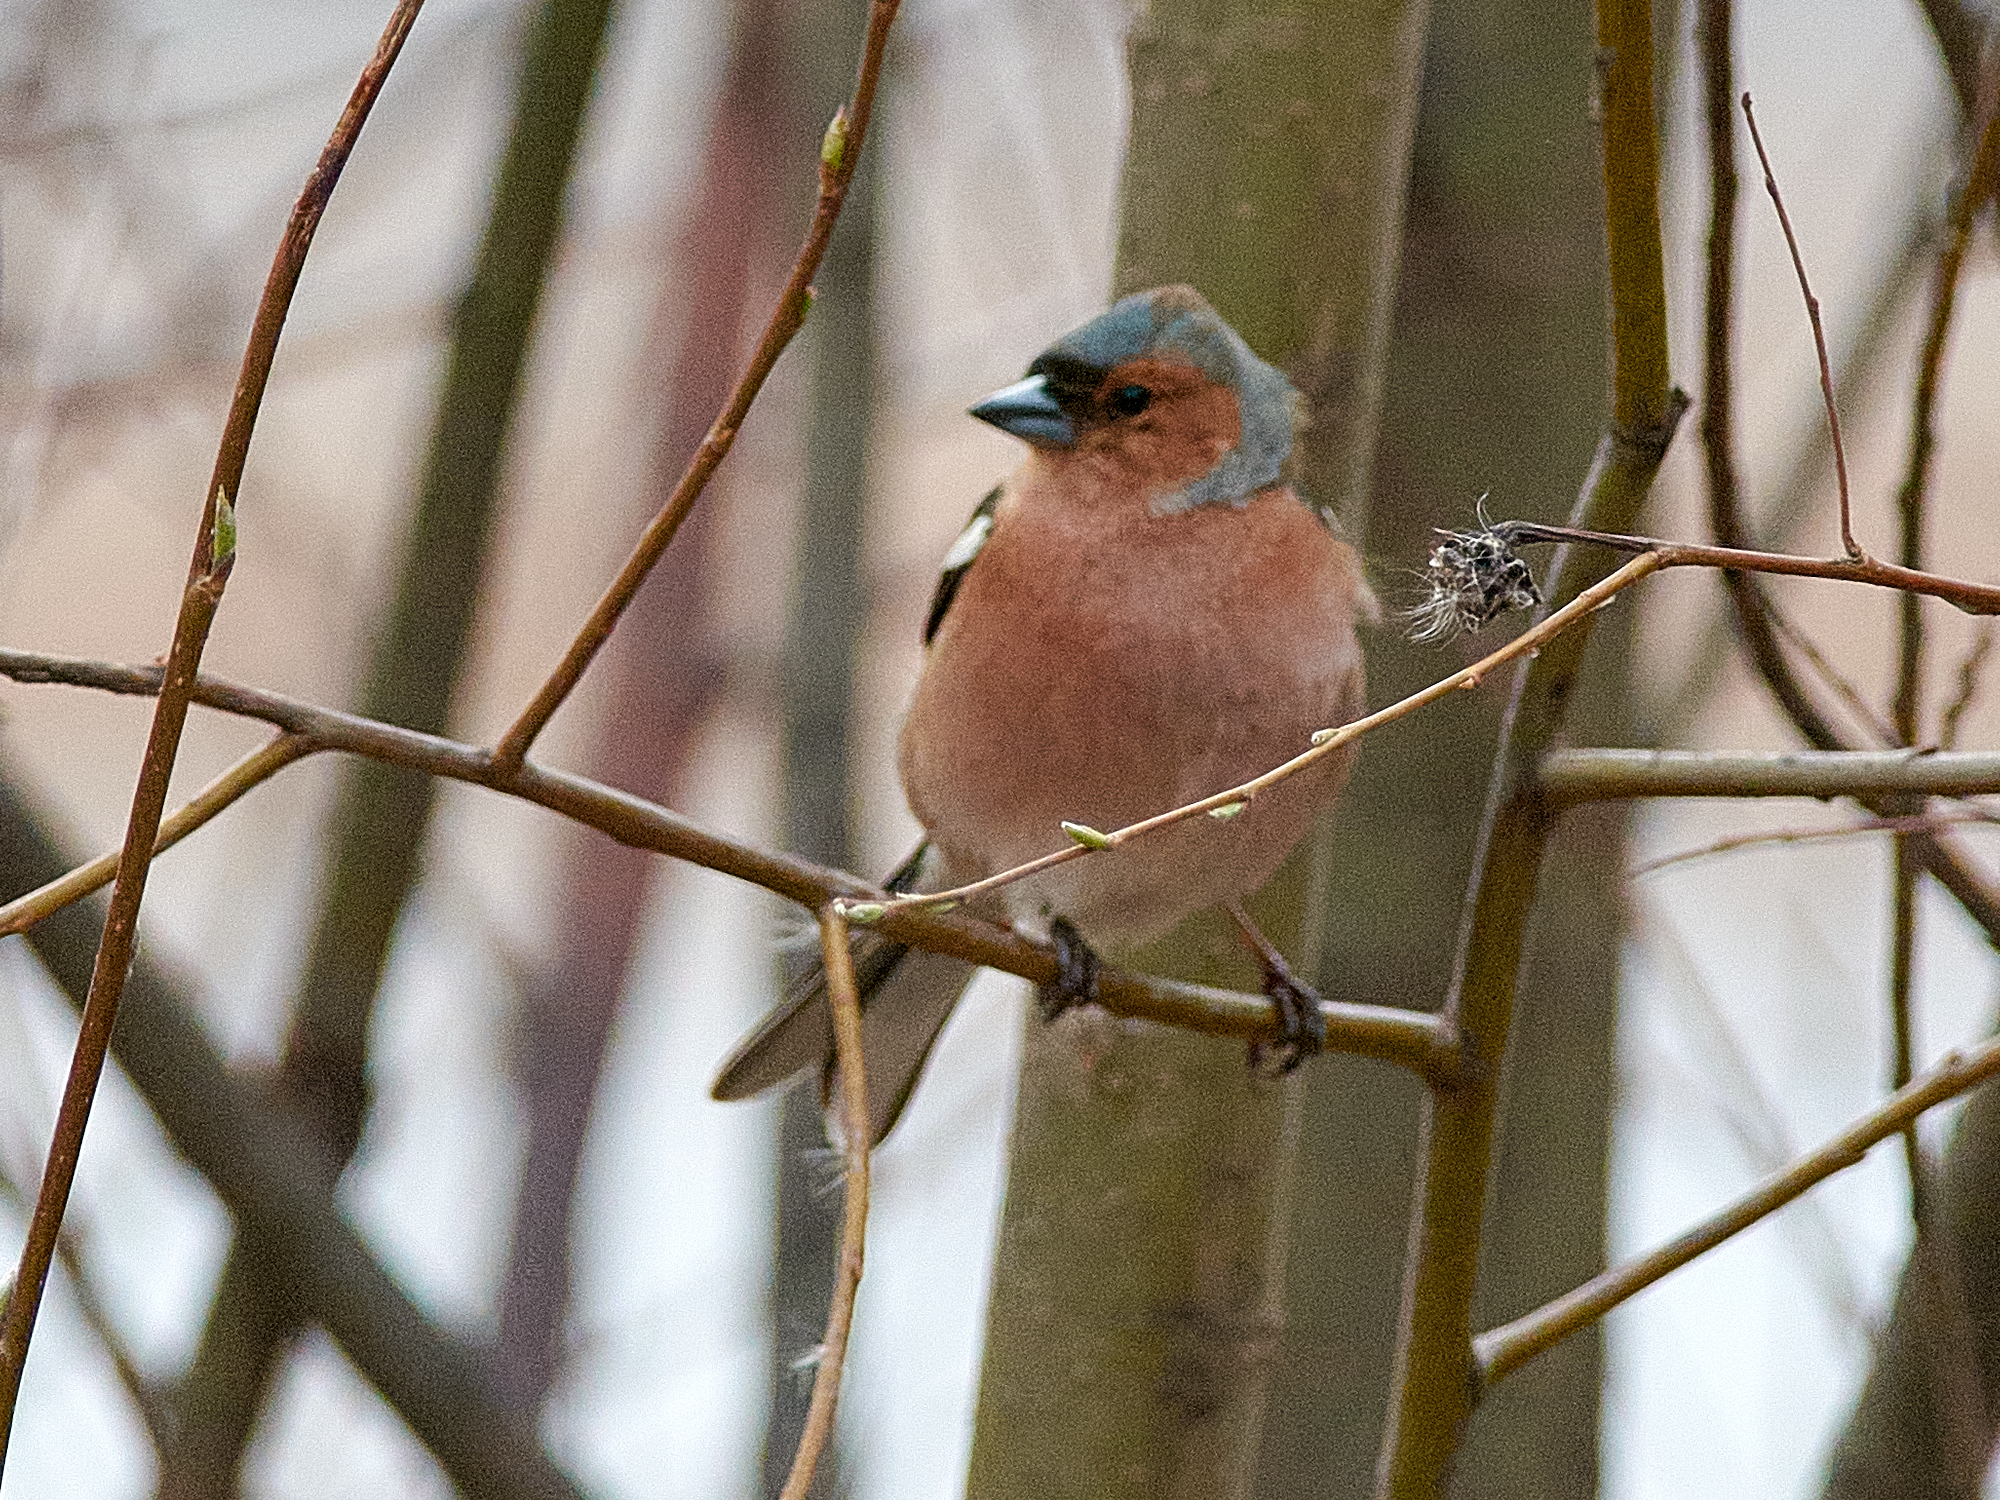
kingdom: Animalia
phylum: Chordata
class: Aves
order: Passeriformes
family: Fringillidae
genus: Fringilla
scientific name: Fringilla coelebs
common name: Common chaffinch
